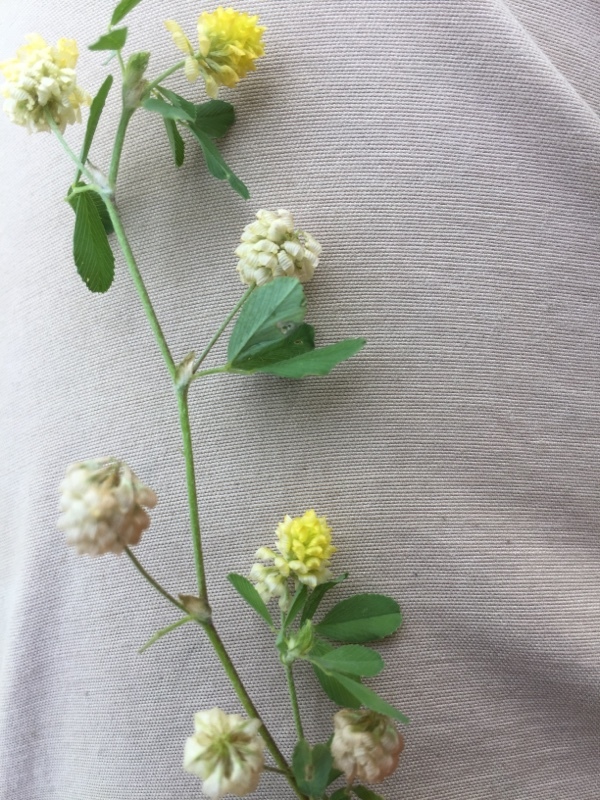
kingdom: Plantae
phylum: Tracheophyta
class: Magnoliopsida
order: Fabales
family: Fabaceae
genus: Trifolium
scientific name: Trifolium campestre
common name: Field clover
